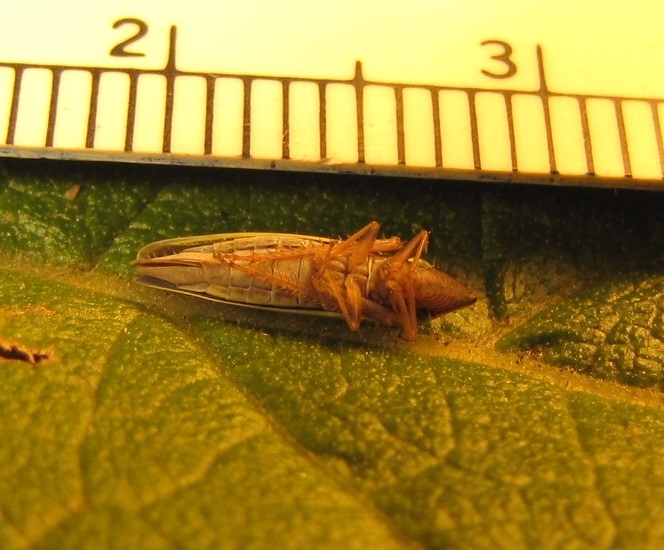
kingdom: Animalia
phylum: Arthropoda
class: Insecta
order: Hemiptera
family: Cicadellidae
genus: Draeculacephala
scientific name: Draeculacephala robinsoni
